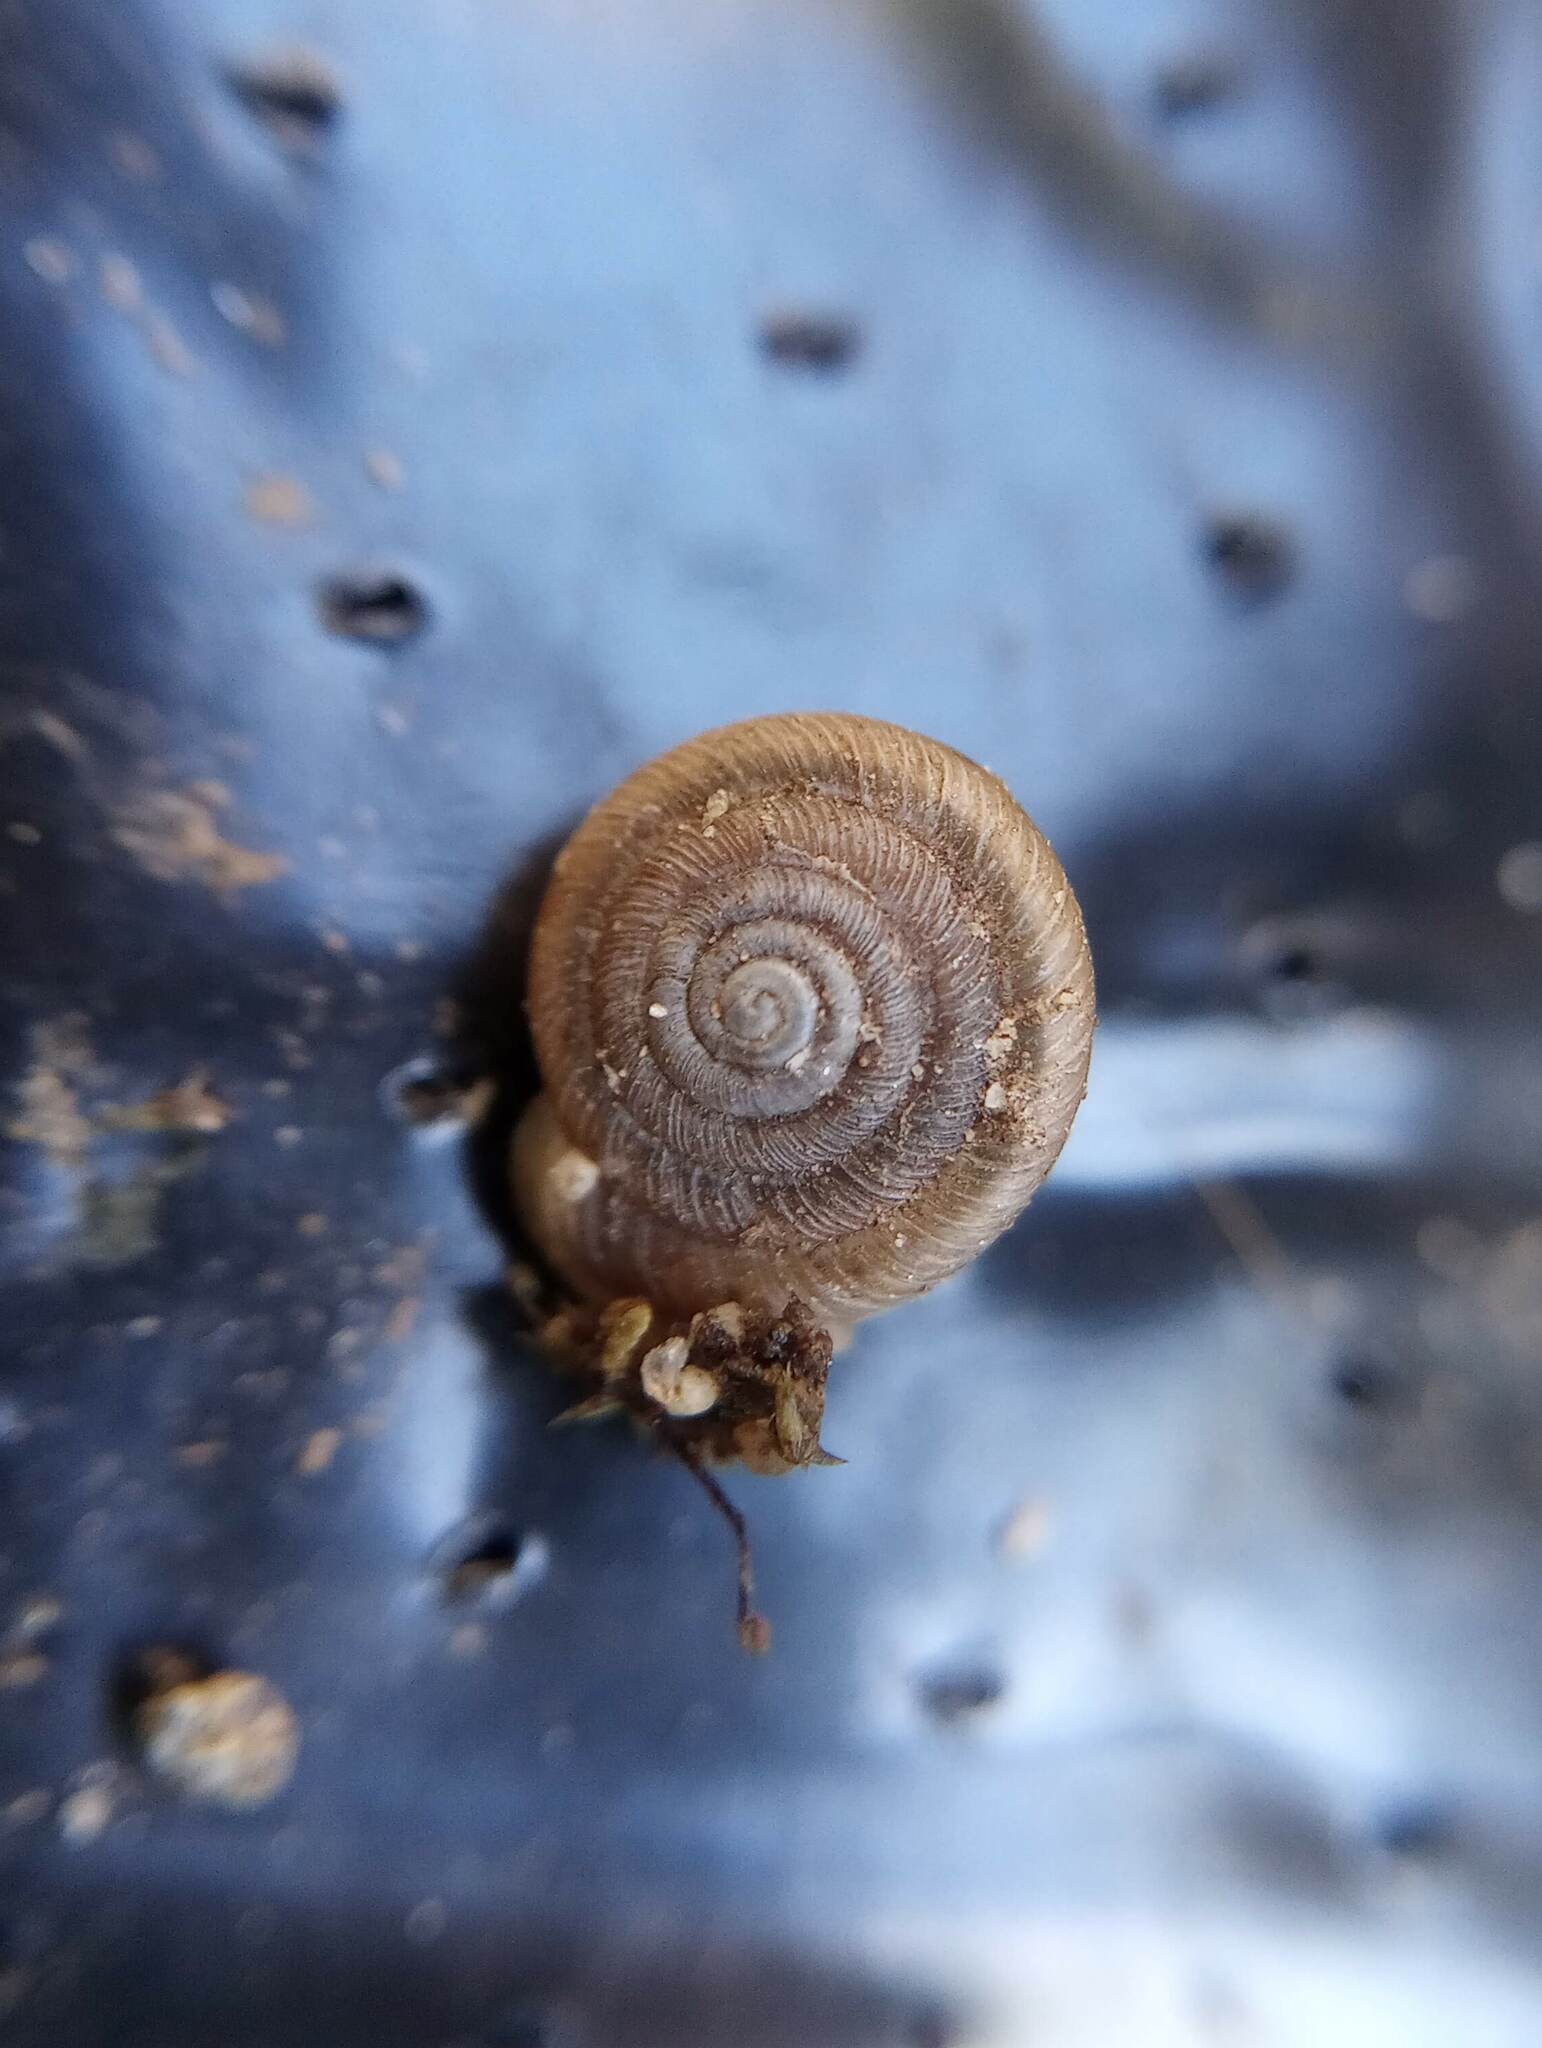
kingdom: Animalia
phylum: Mollusca
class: Gastropoda
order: Stylommatophora
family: Polygyridae
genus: Polygyra
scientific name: Polygyra cereolus
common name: Southern flatcone snail
